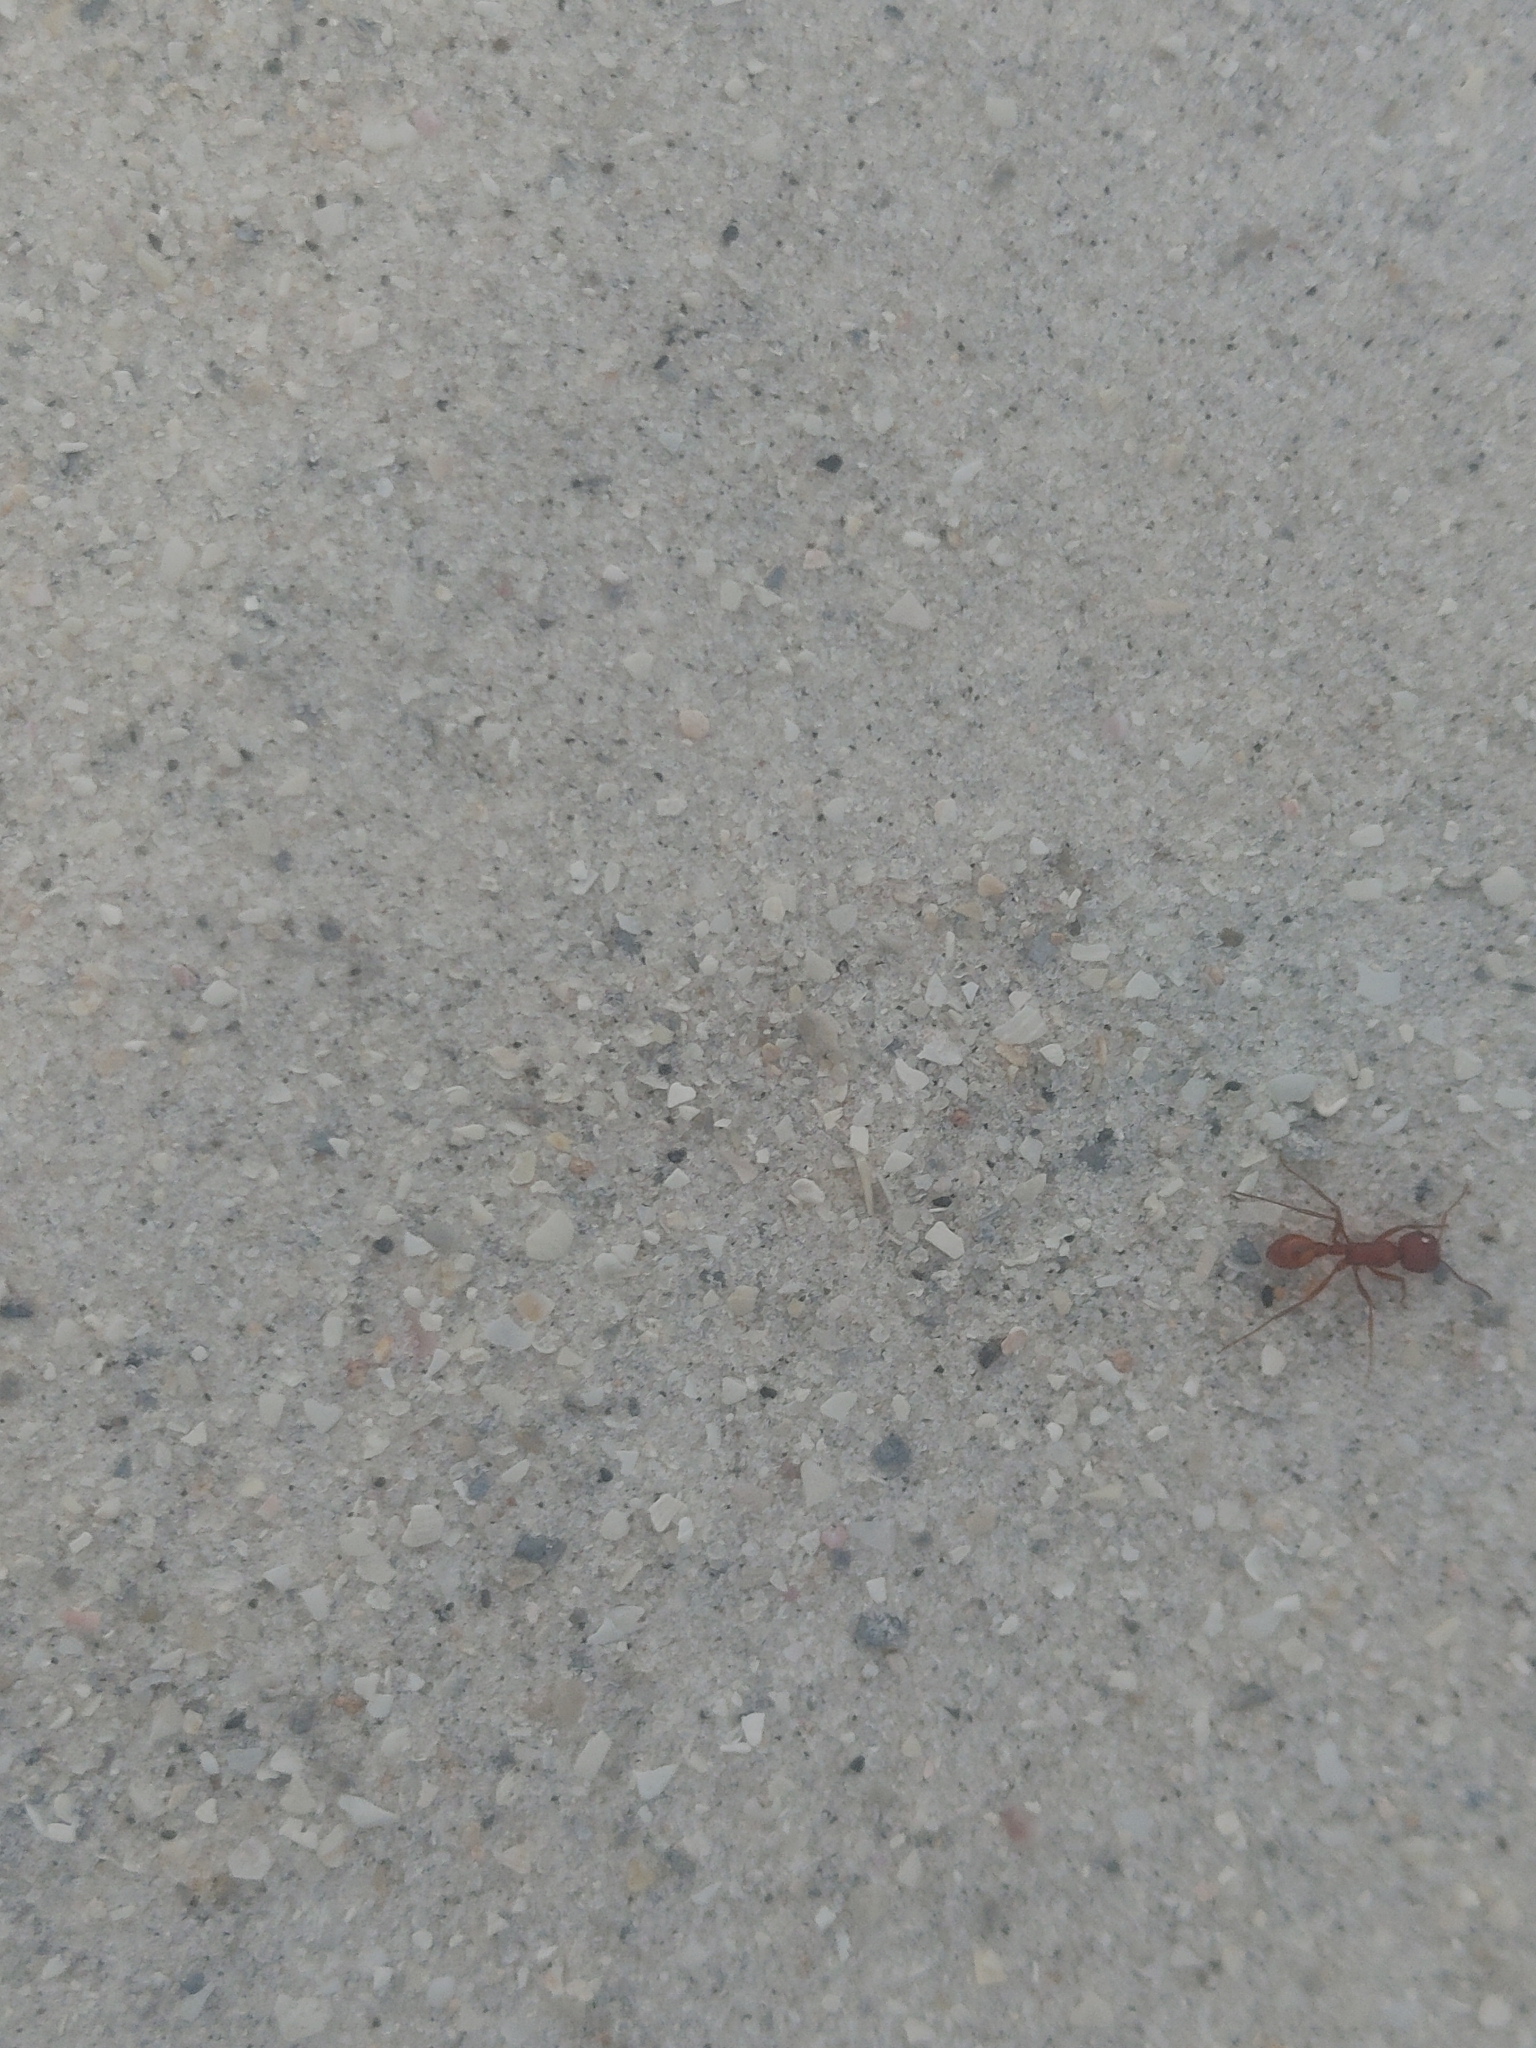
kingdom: Animalia
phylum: Arthropoda
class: Insecta
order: Hymenoptera
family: Formicidae
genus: Pogonomyrmex
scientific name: Pogonomyrmex badius
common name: Florida harvester ant
